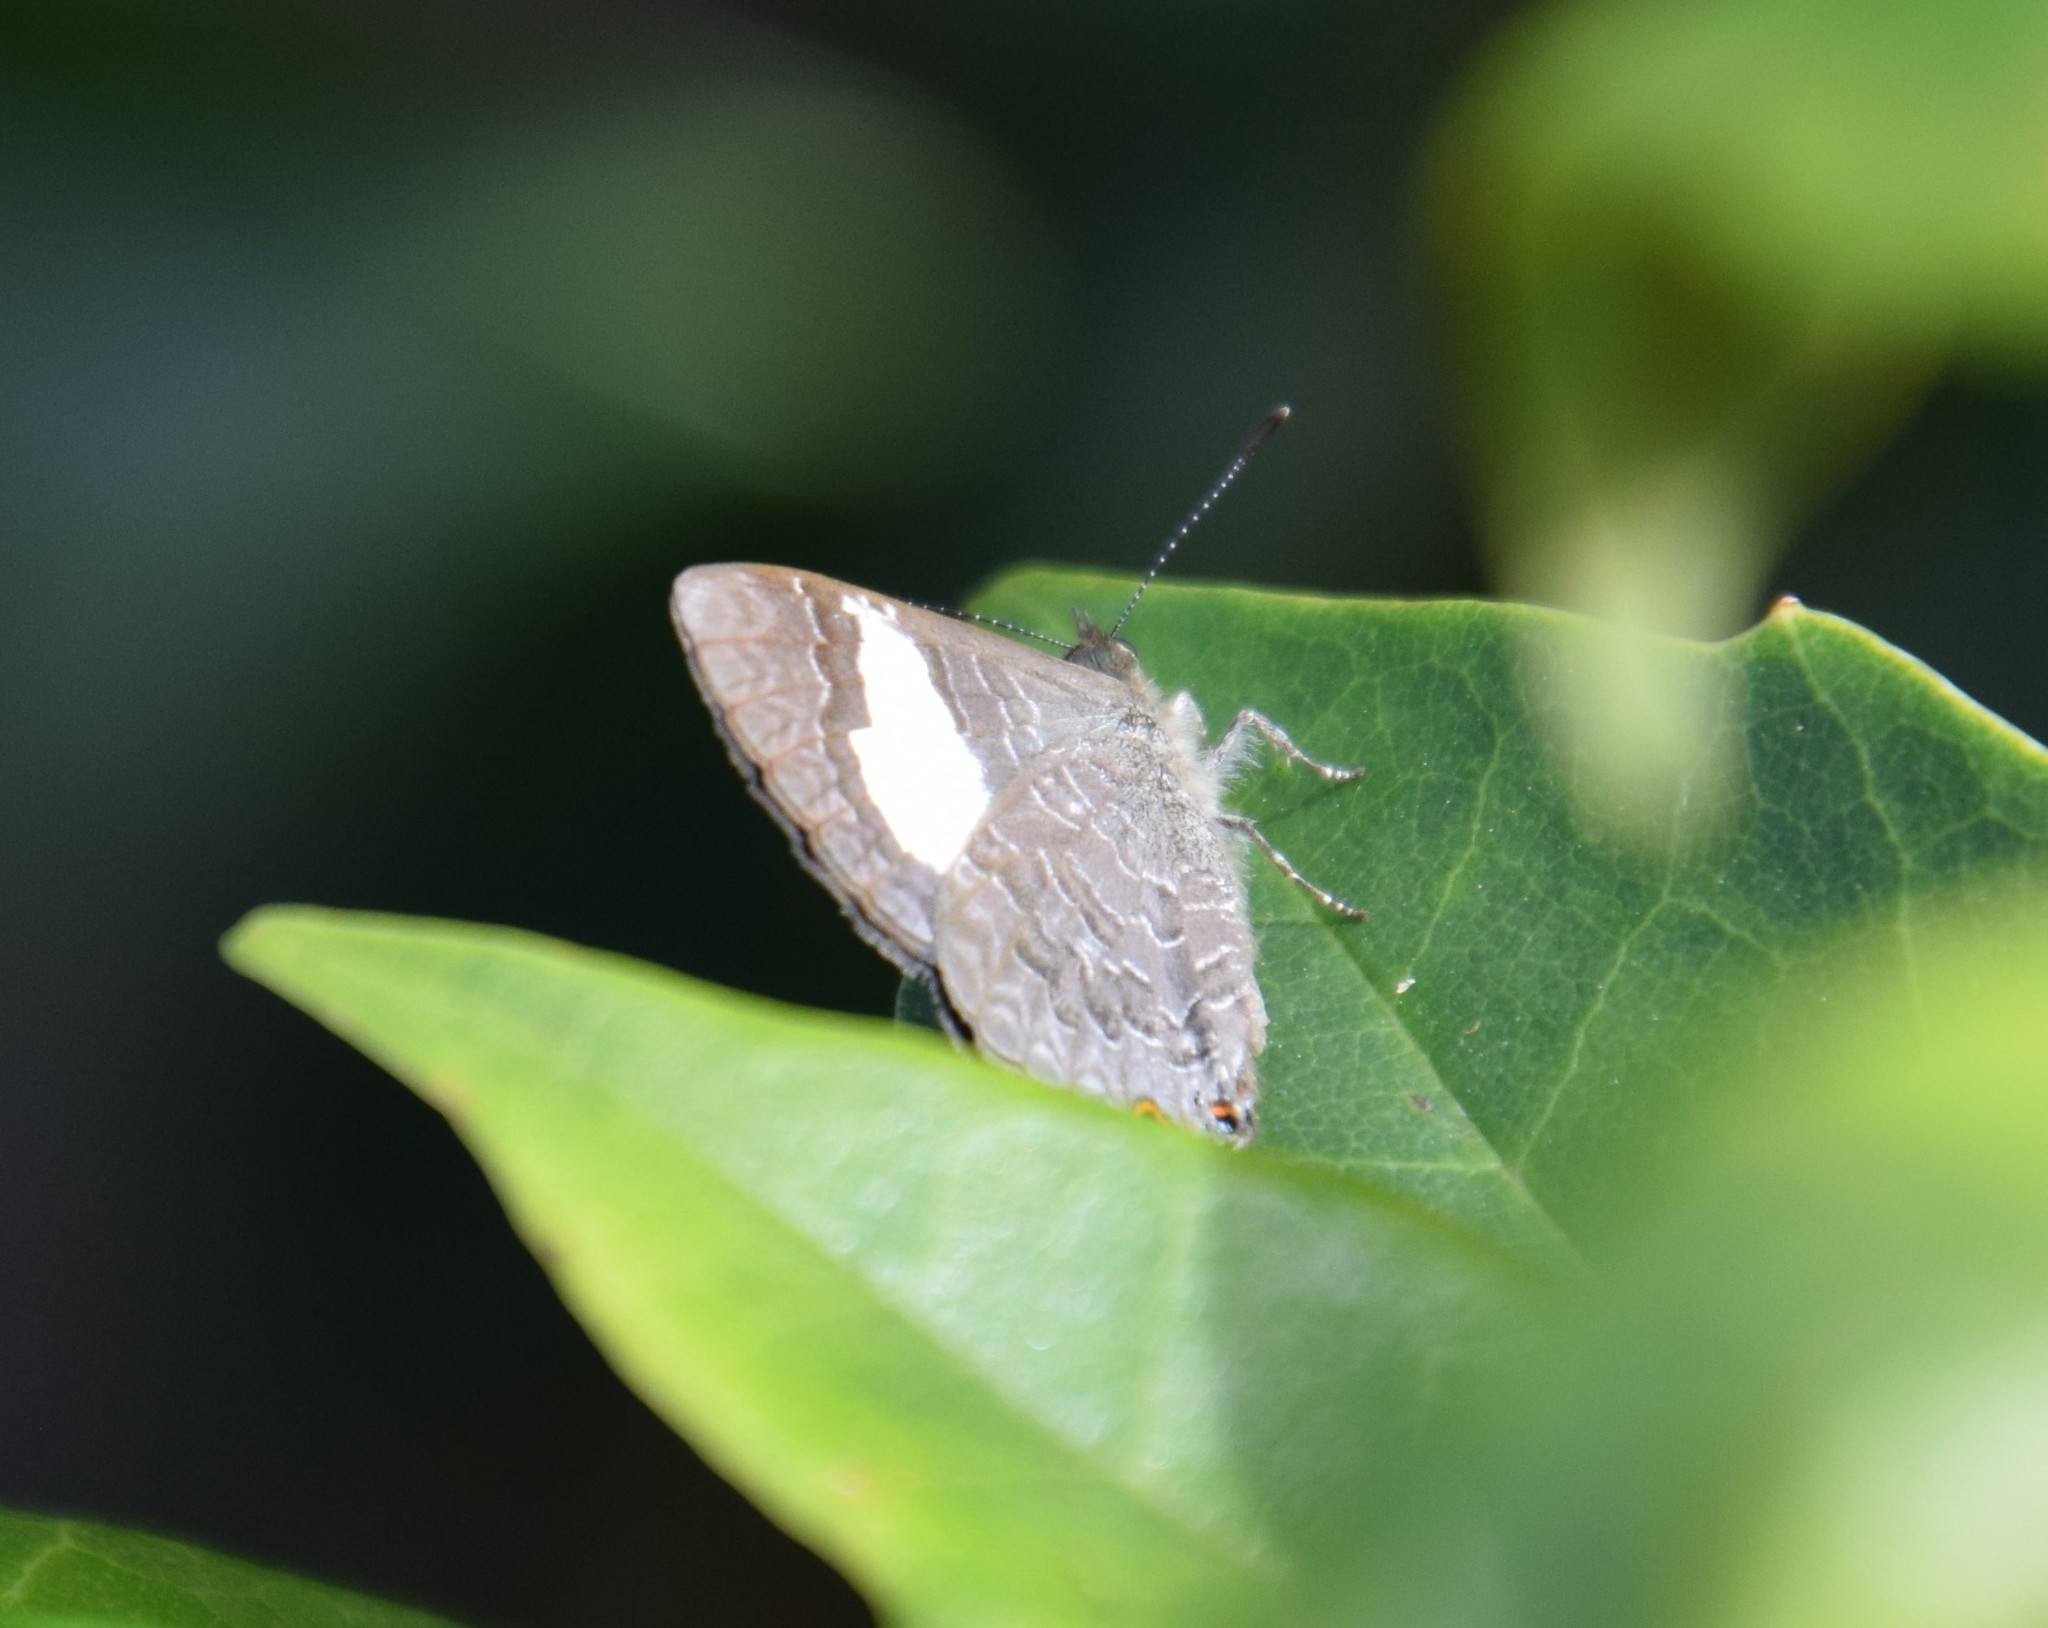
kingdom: Animalia
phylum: Arthropoda
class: Insecta
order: Lepidoptera
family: Lycaenidae
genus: Erysichton
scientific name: Erysichton lineata
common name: Hairy line blue
